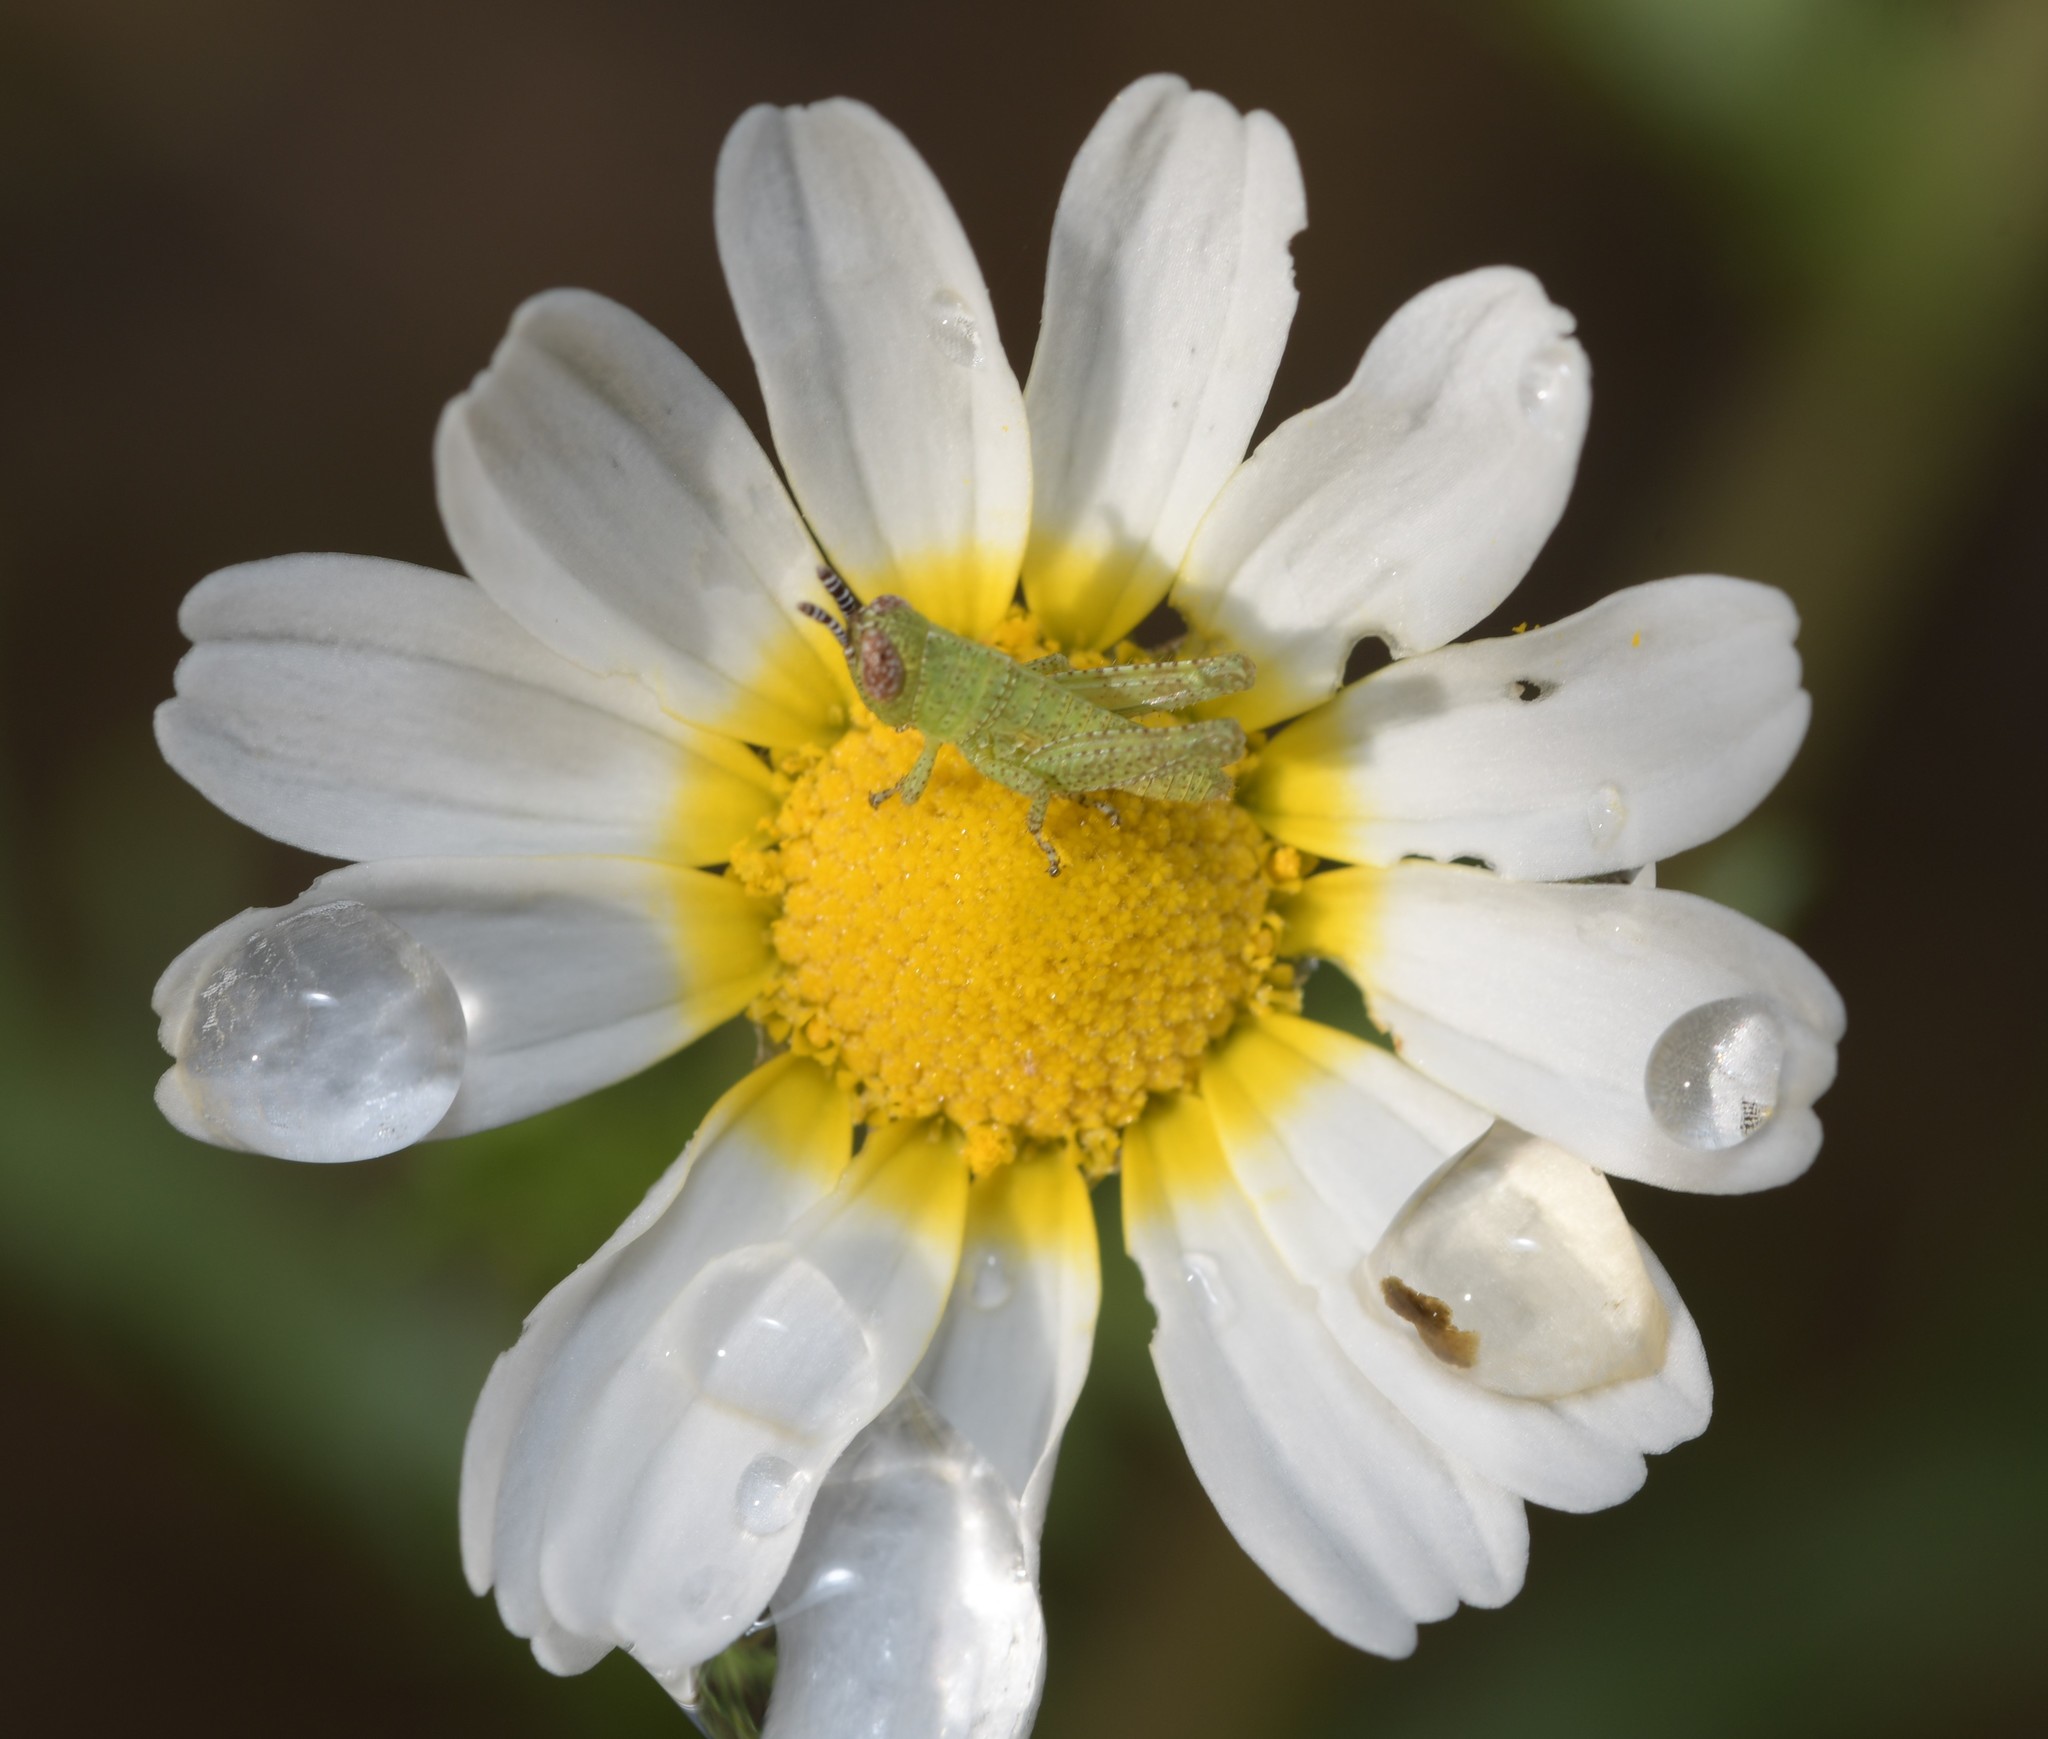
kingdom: Animalia
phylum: Arthropoda
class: Insecta
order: Orthoptera
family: Acrididae
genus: Pezotettix
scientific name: Pezotettix giornae
